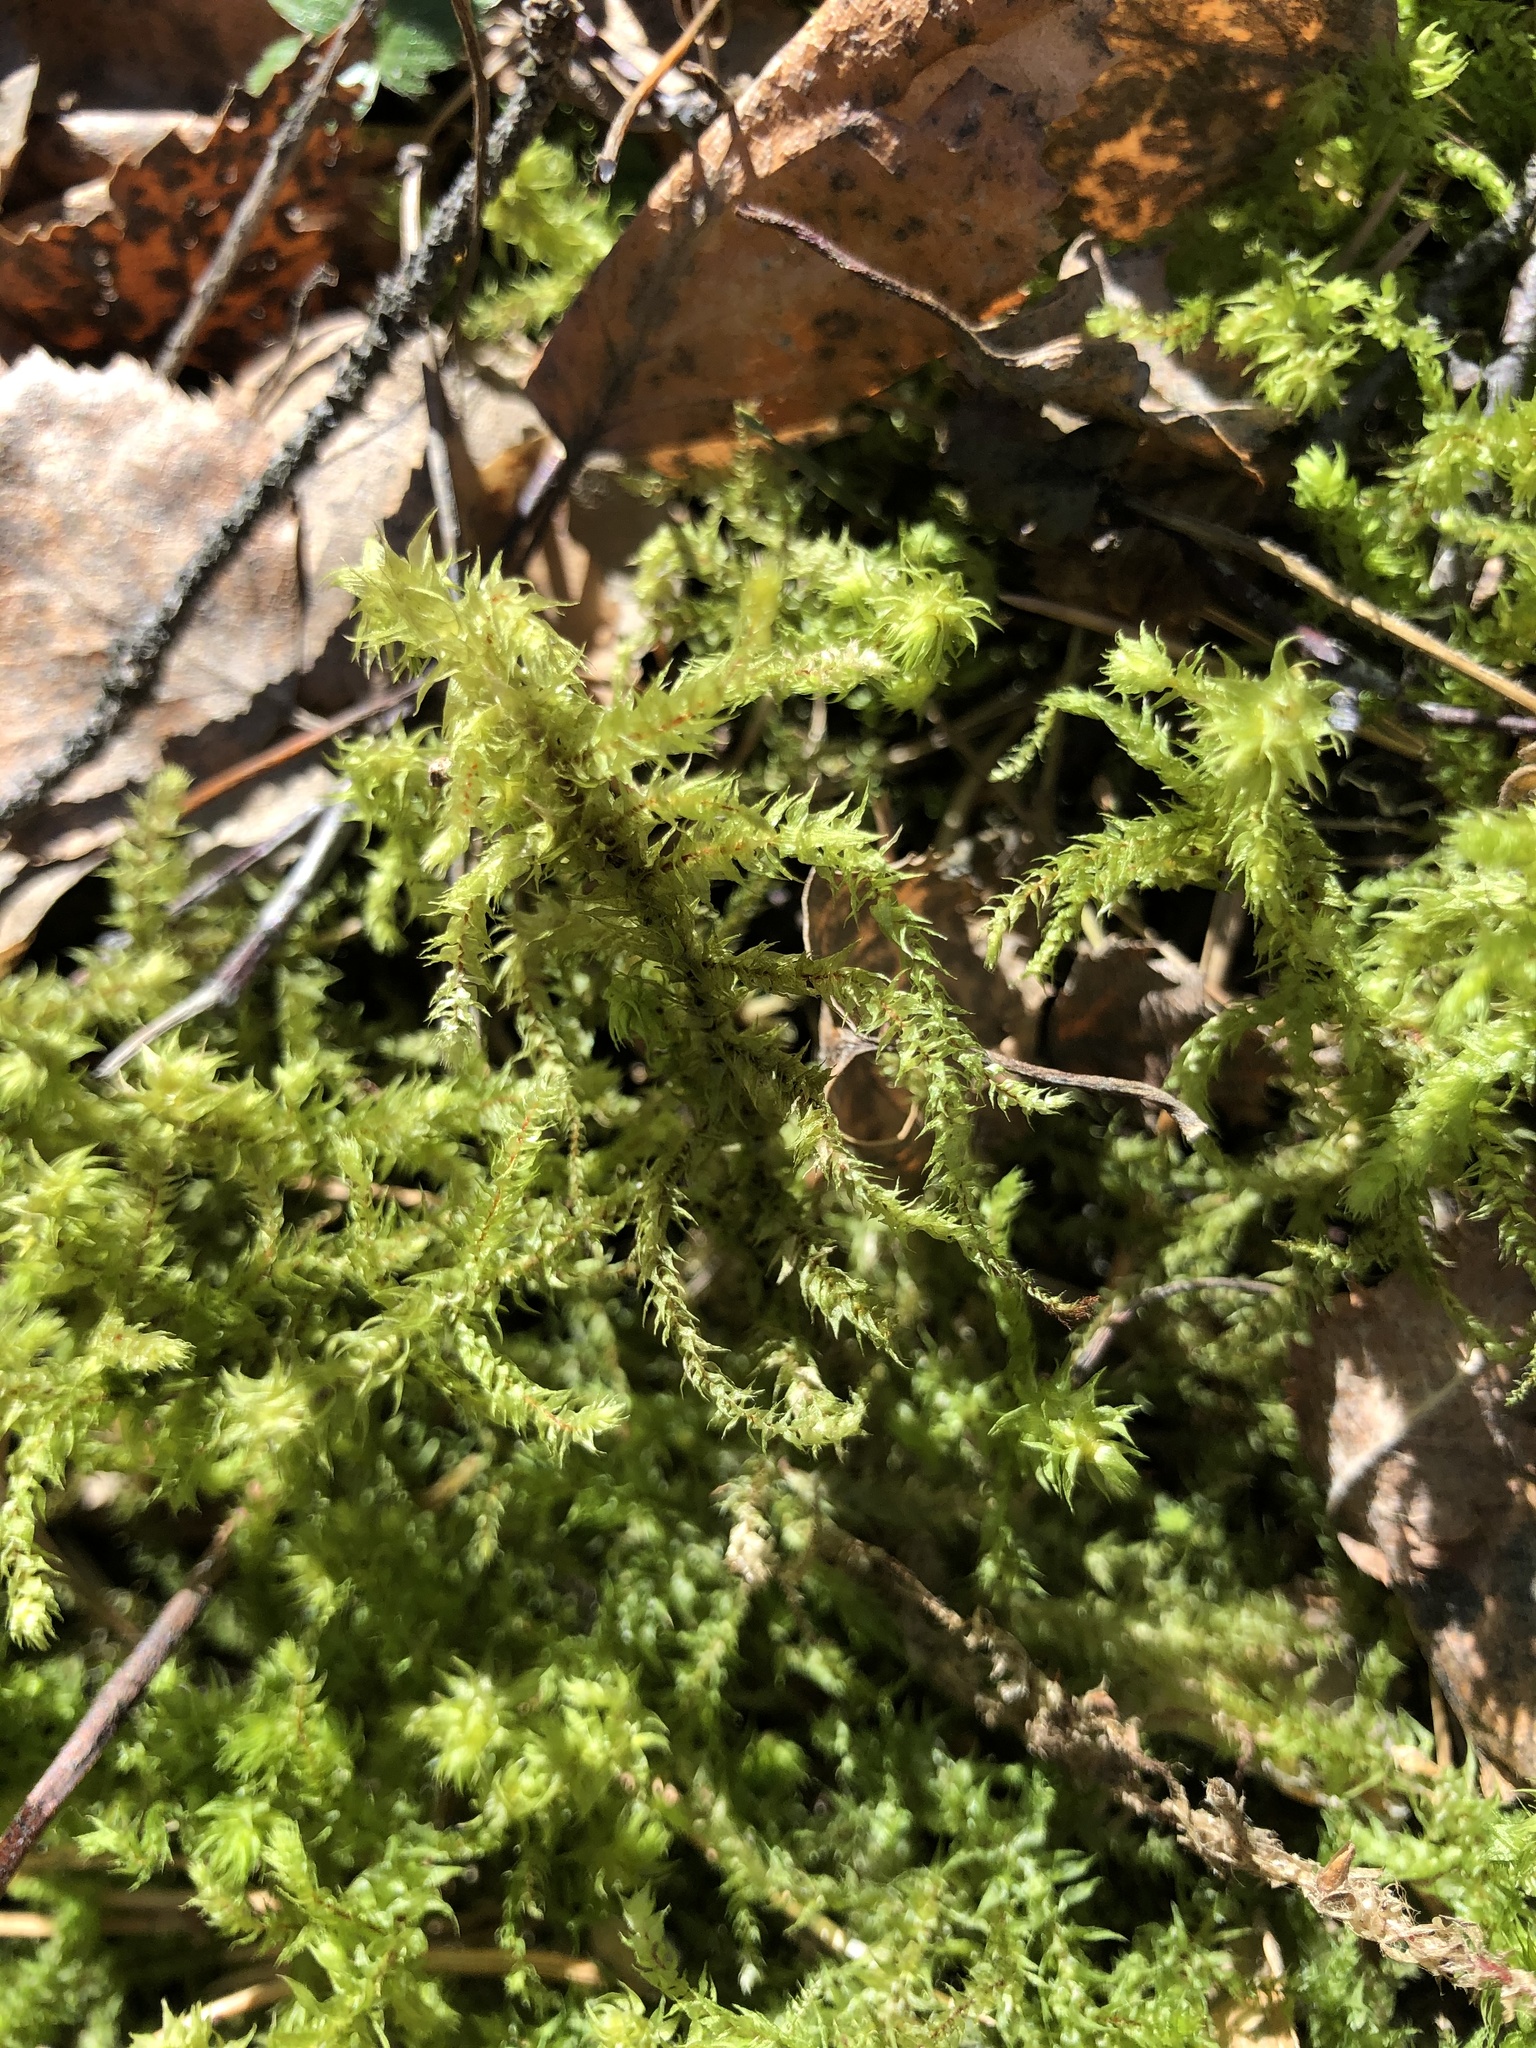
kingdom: Plantae
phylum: Bryophyta
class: Bryopsida
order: Hypnales
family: Hylocomiaceae
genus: Hylocomiadelphus
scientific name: Hylocomiadelphus triquetrus
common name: Rough goose neck moss
